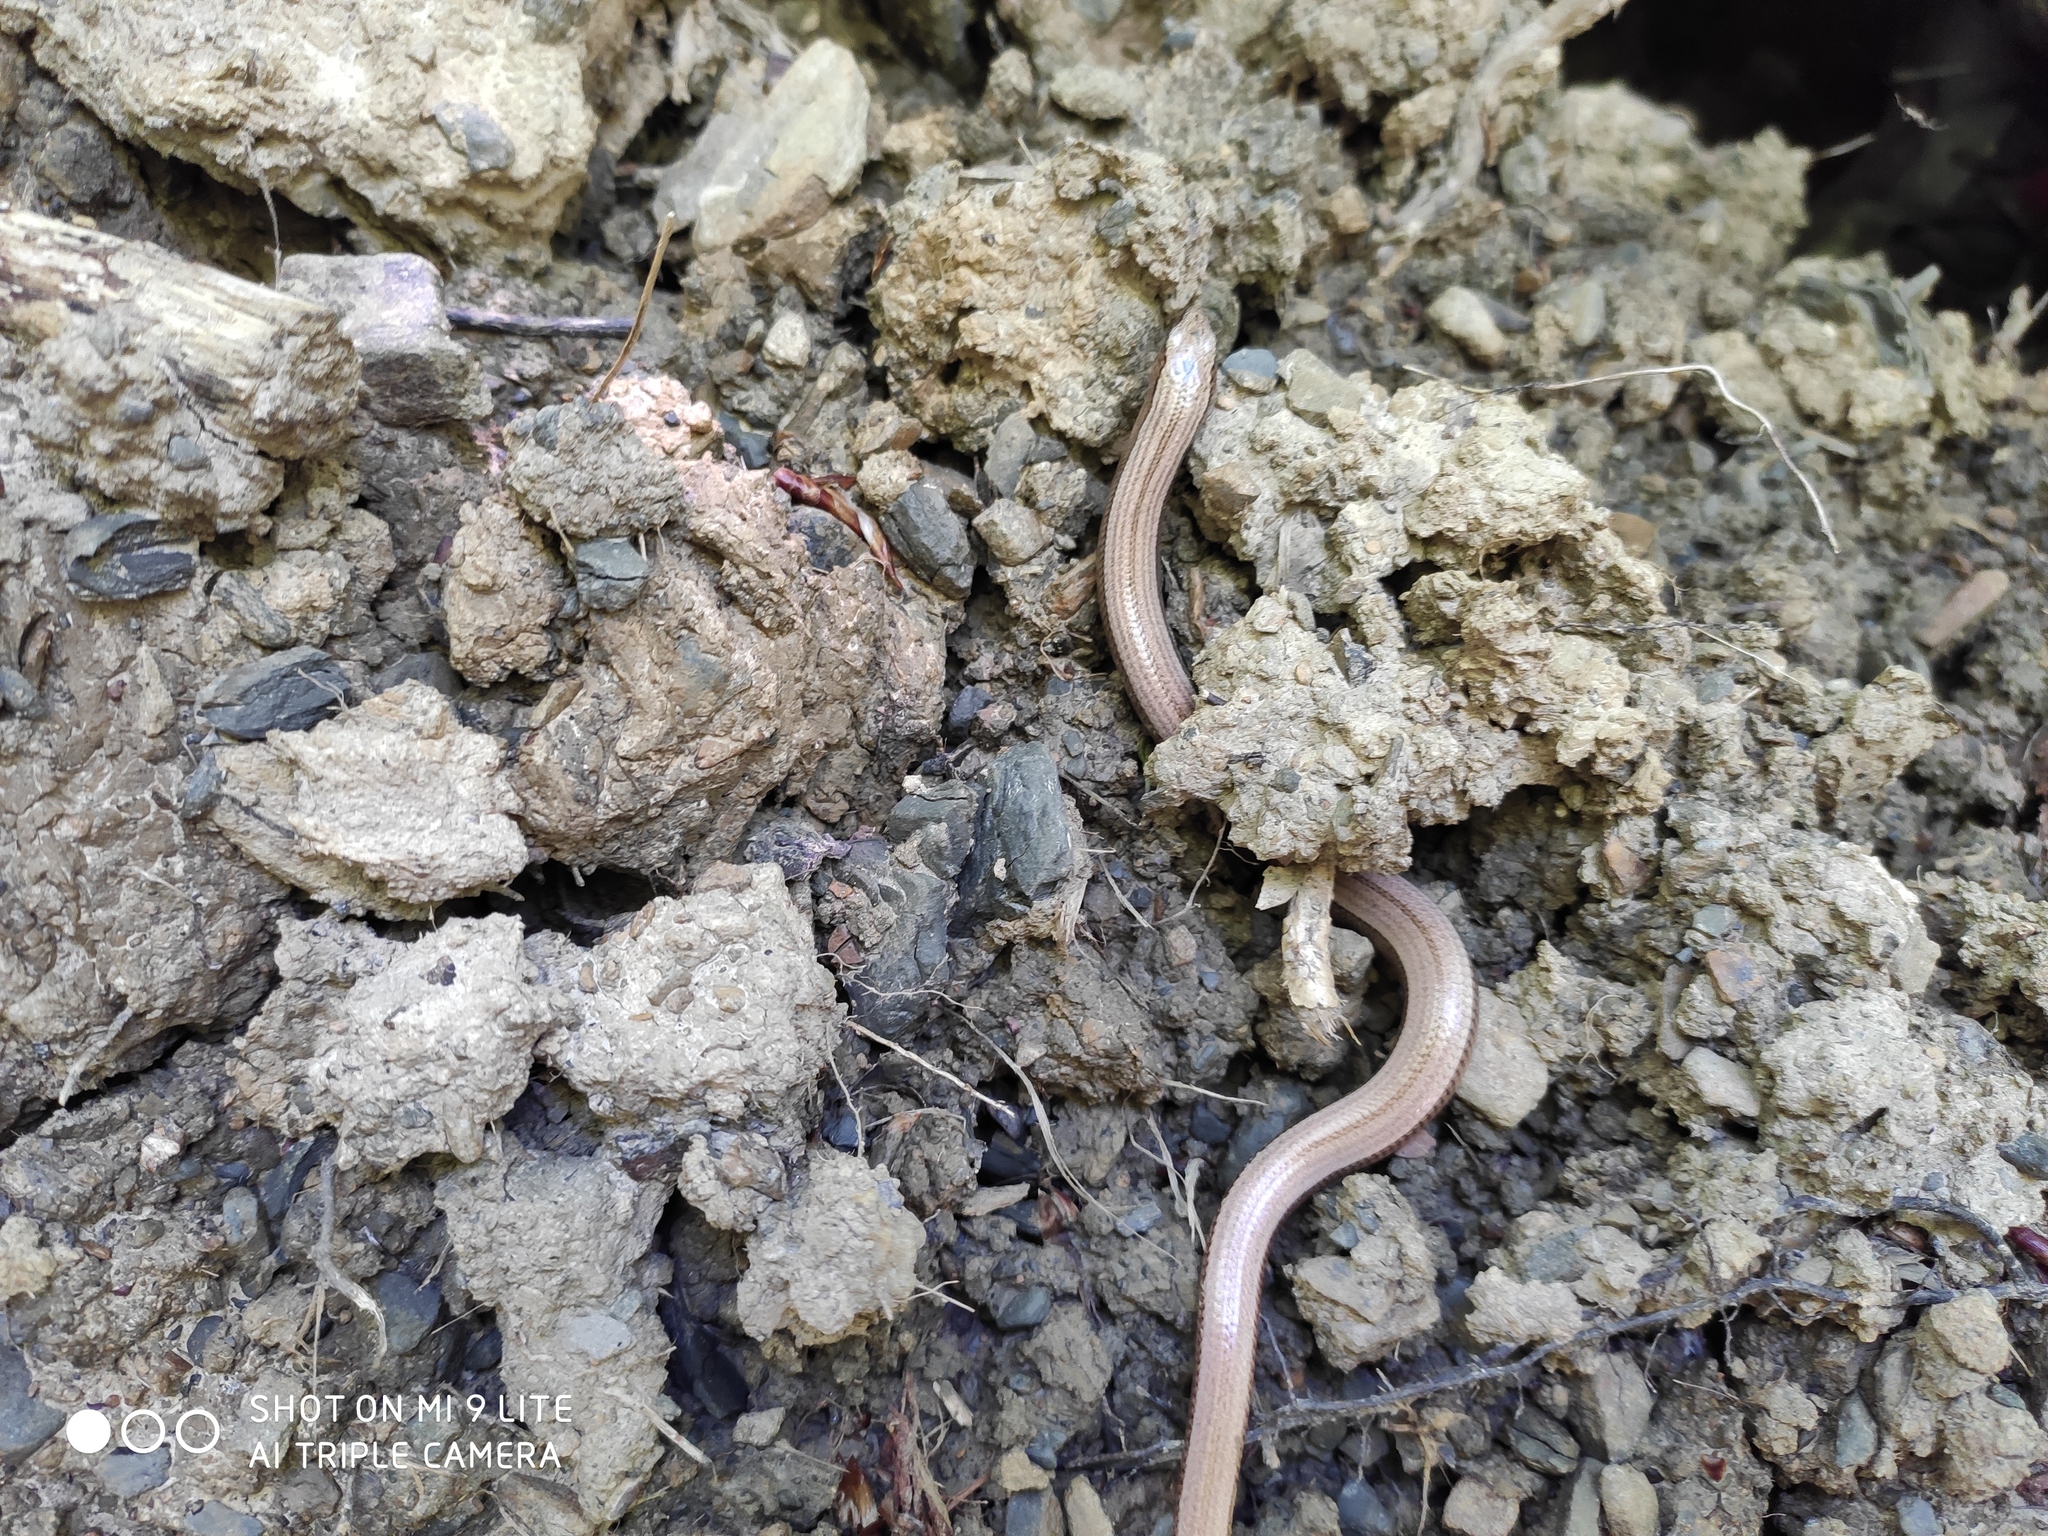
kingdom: Animalia
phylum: Chordata
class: Squamata
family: Anguidae
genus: Anguis
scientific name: Anguis colchica
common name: Slow worm
